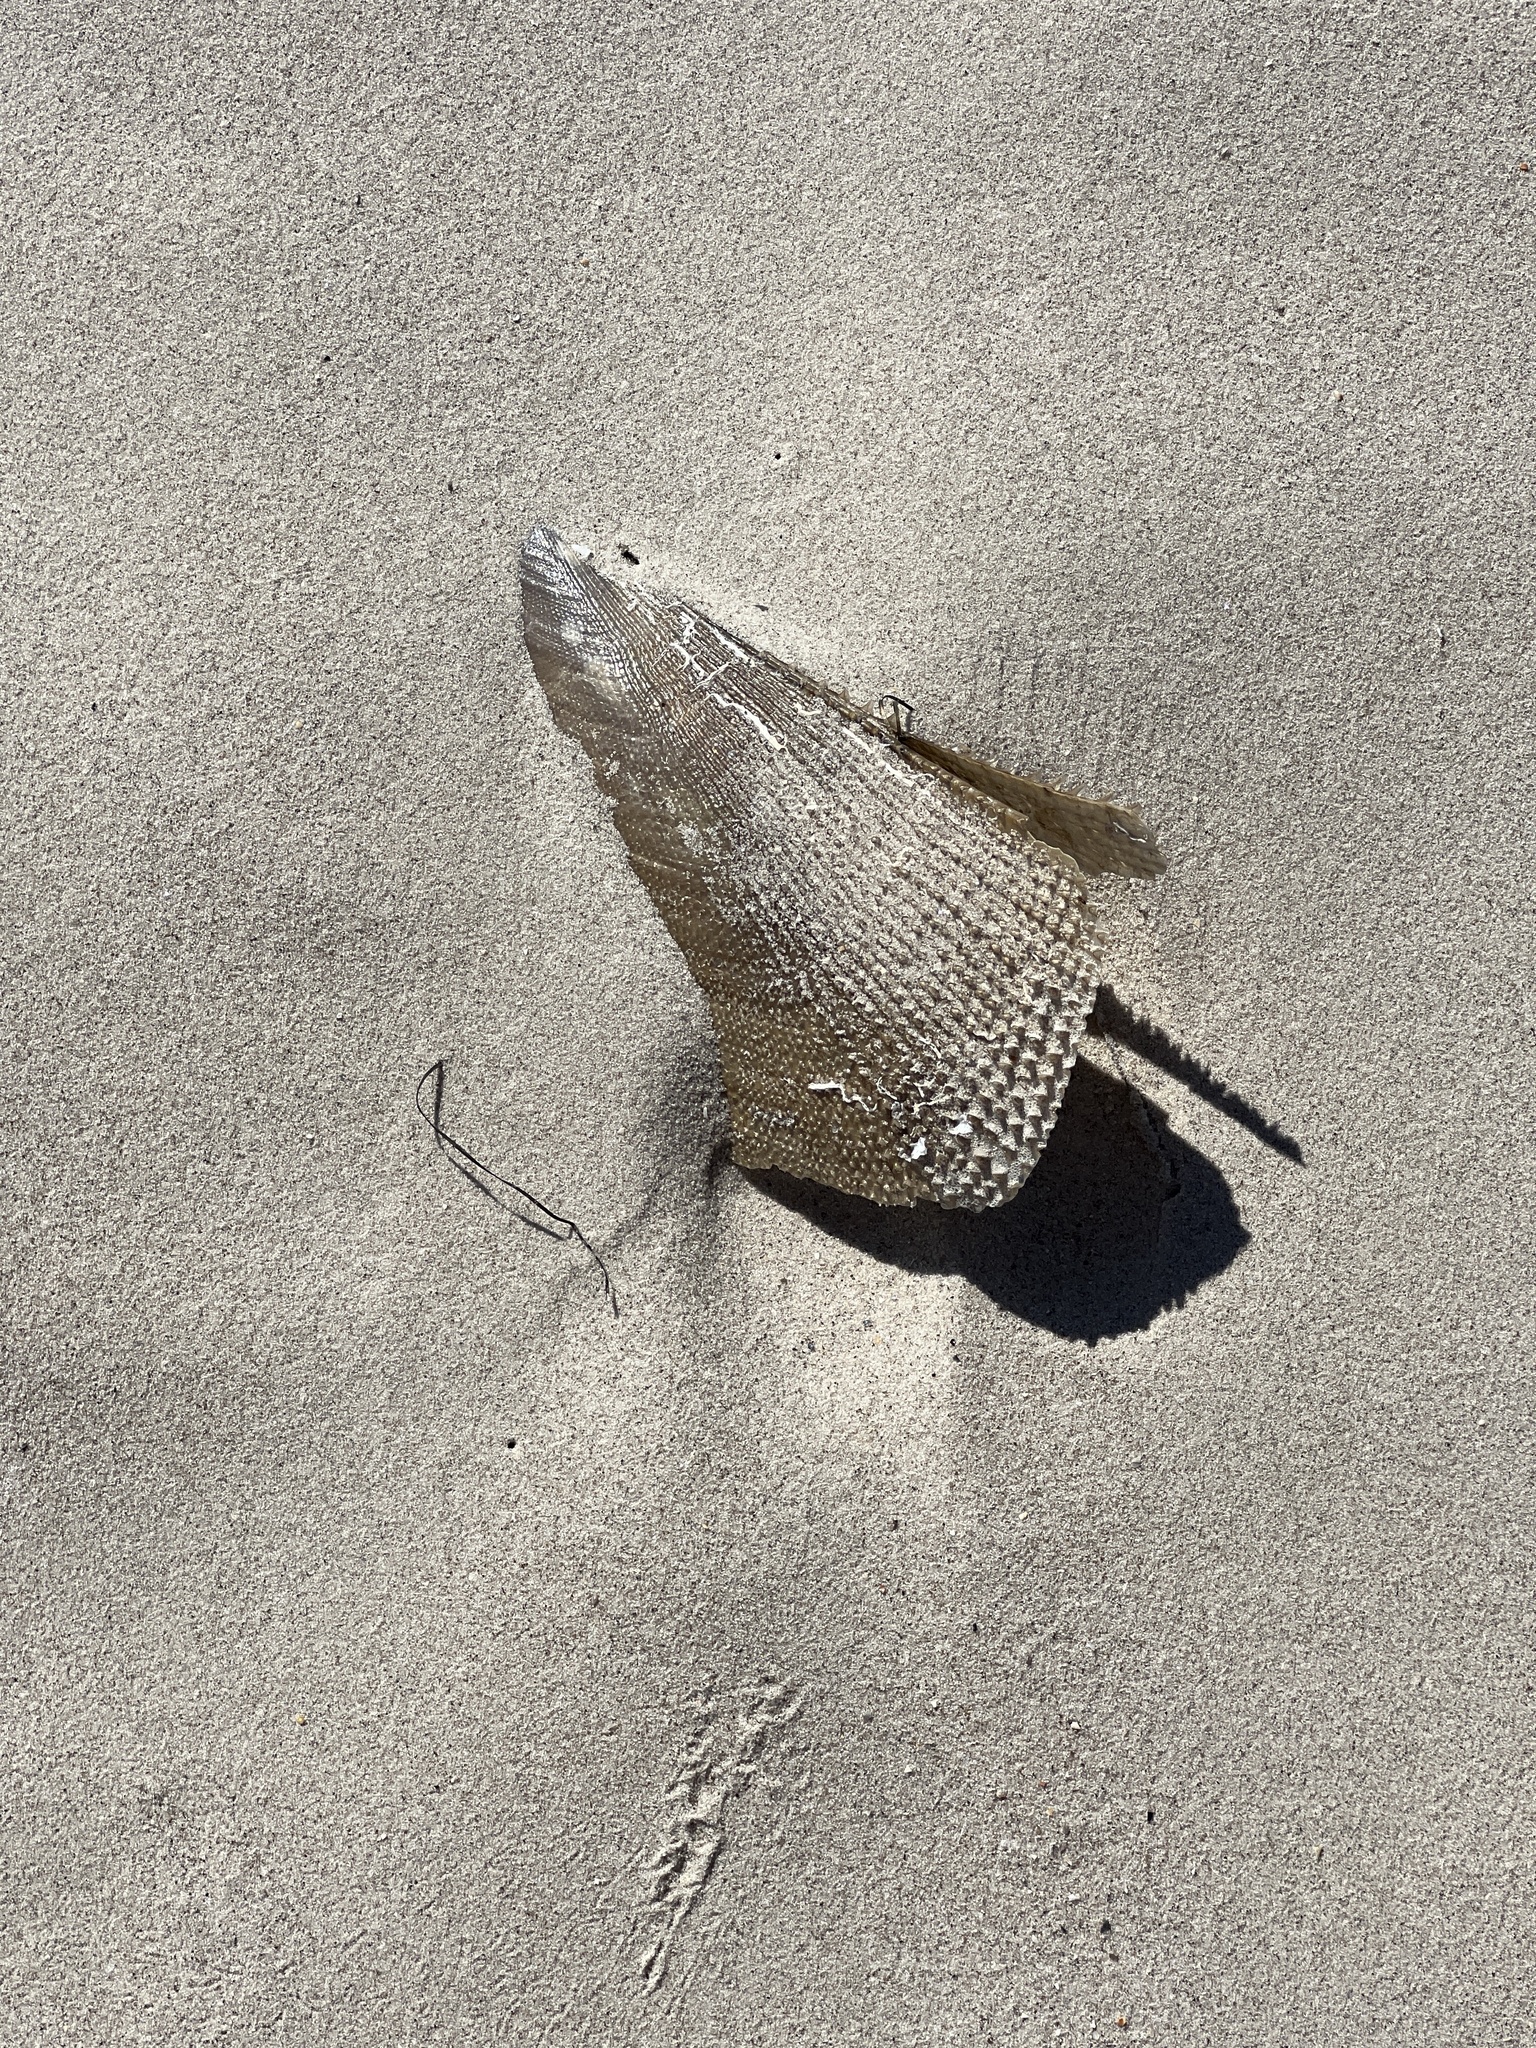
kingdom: Animalia
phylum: Mollusca
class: Bivalvia
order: Ostreida
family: Pinnidae
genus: Atrina
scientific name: Atrina serrata
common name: Saw-toothed penshell
